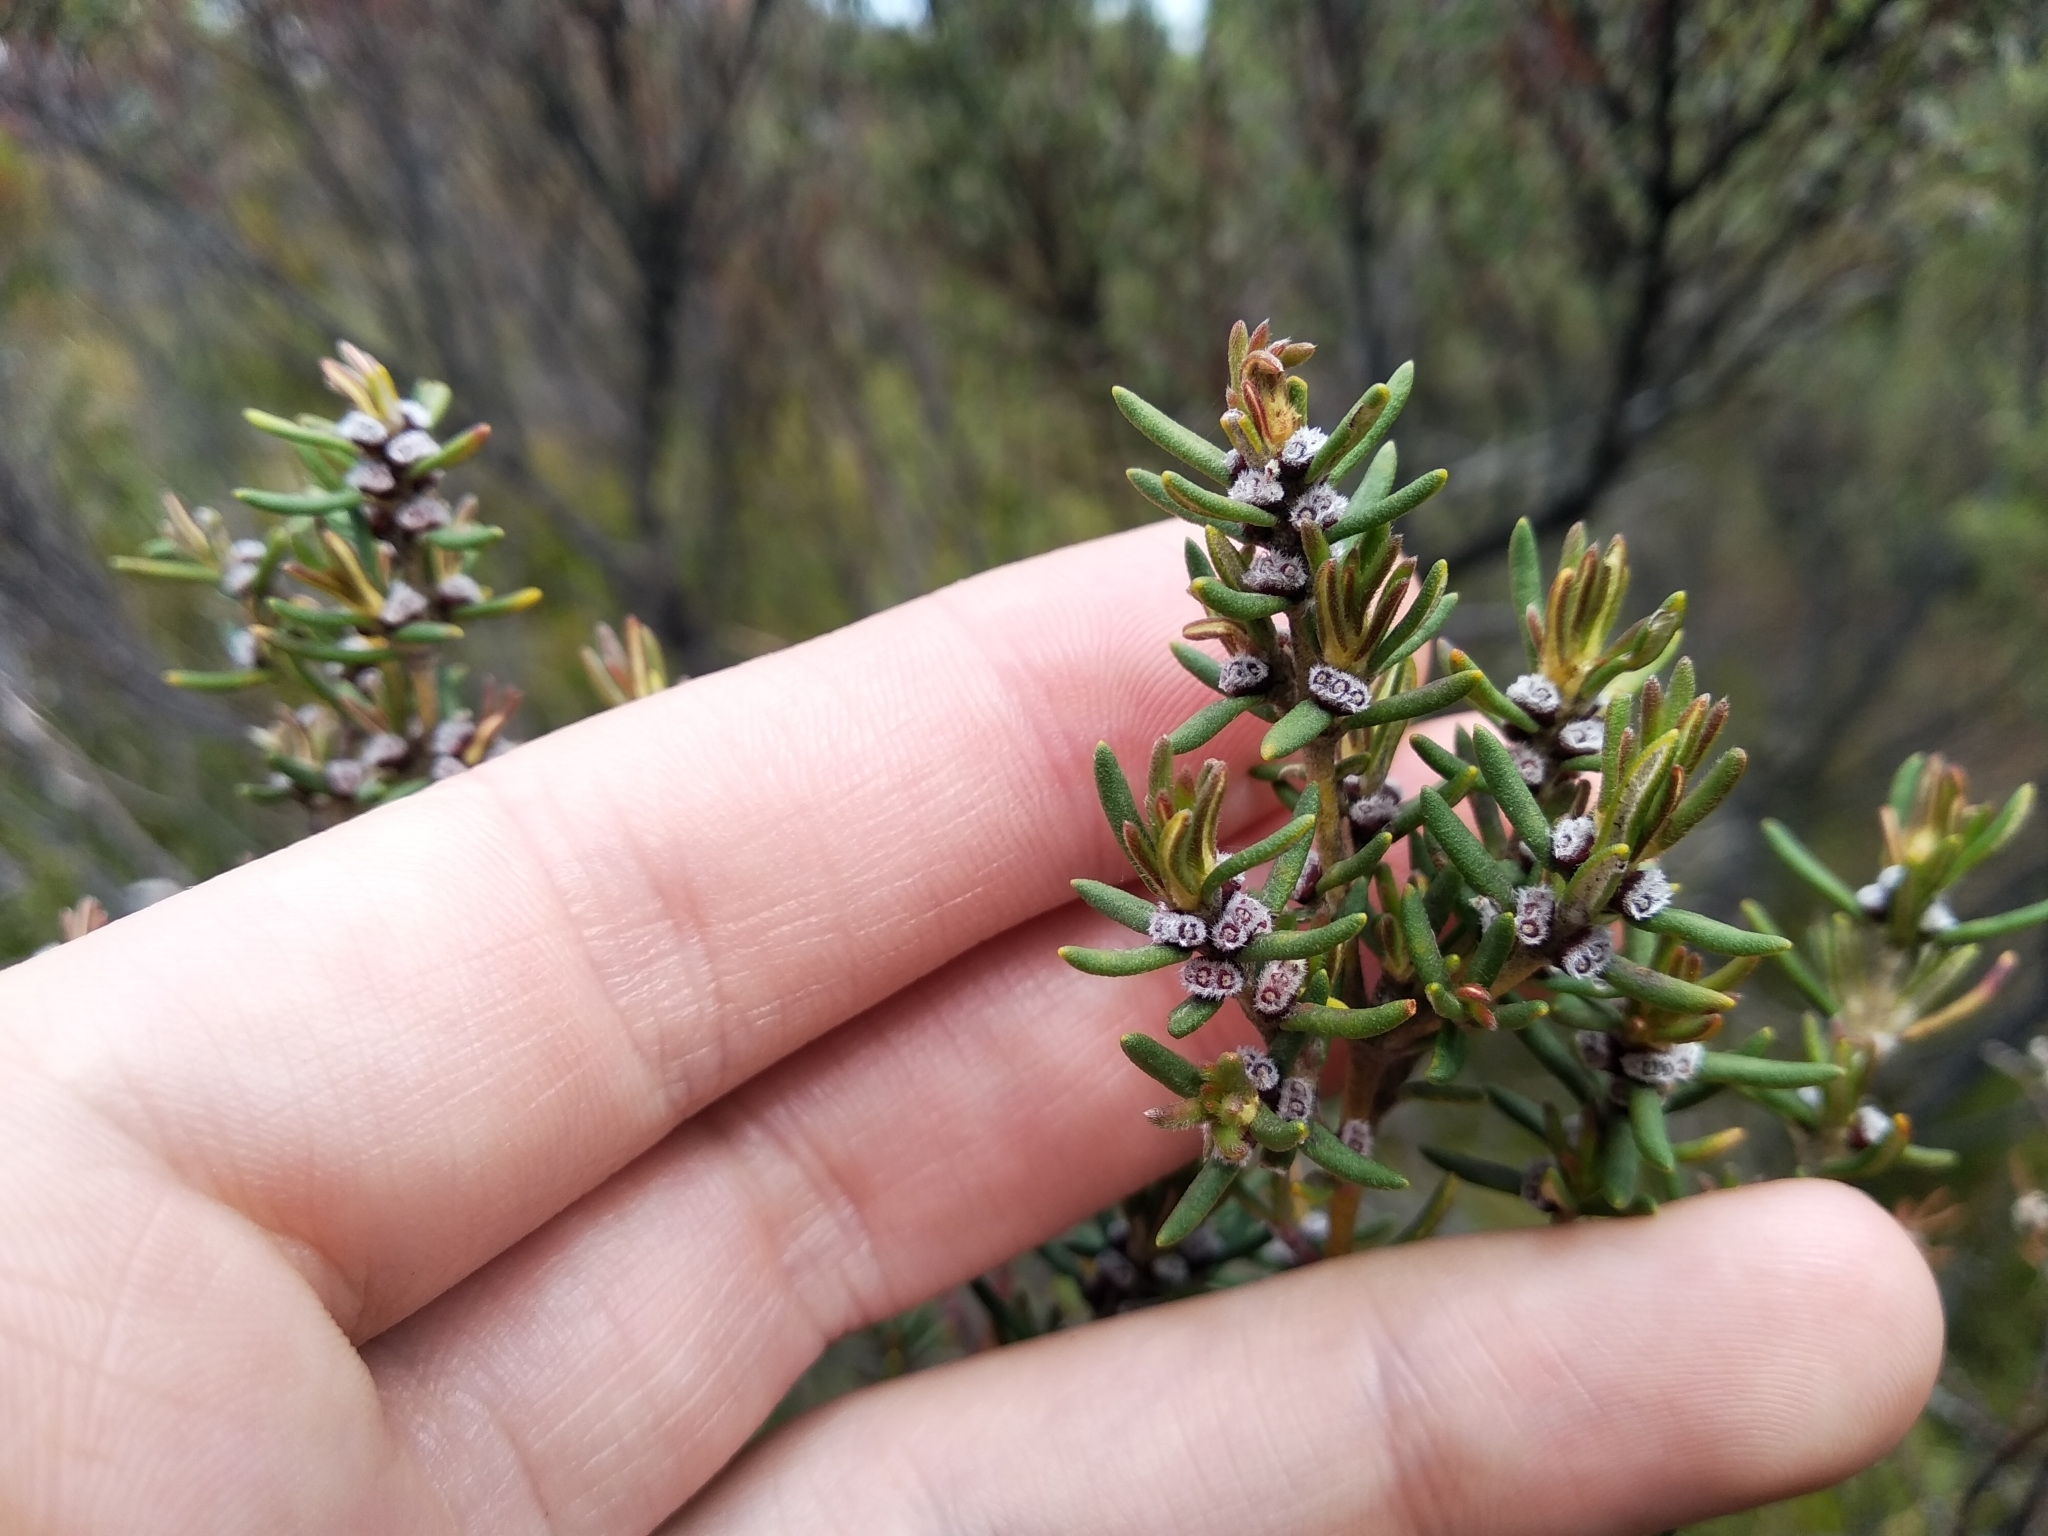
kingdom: Plantae
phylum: Tracheophyta
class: Magnoliopsida
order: Cornales
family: Grubbiaceae
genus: Grubbia
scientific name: Grubbia rosmarinifolia
